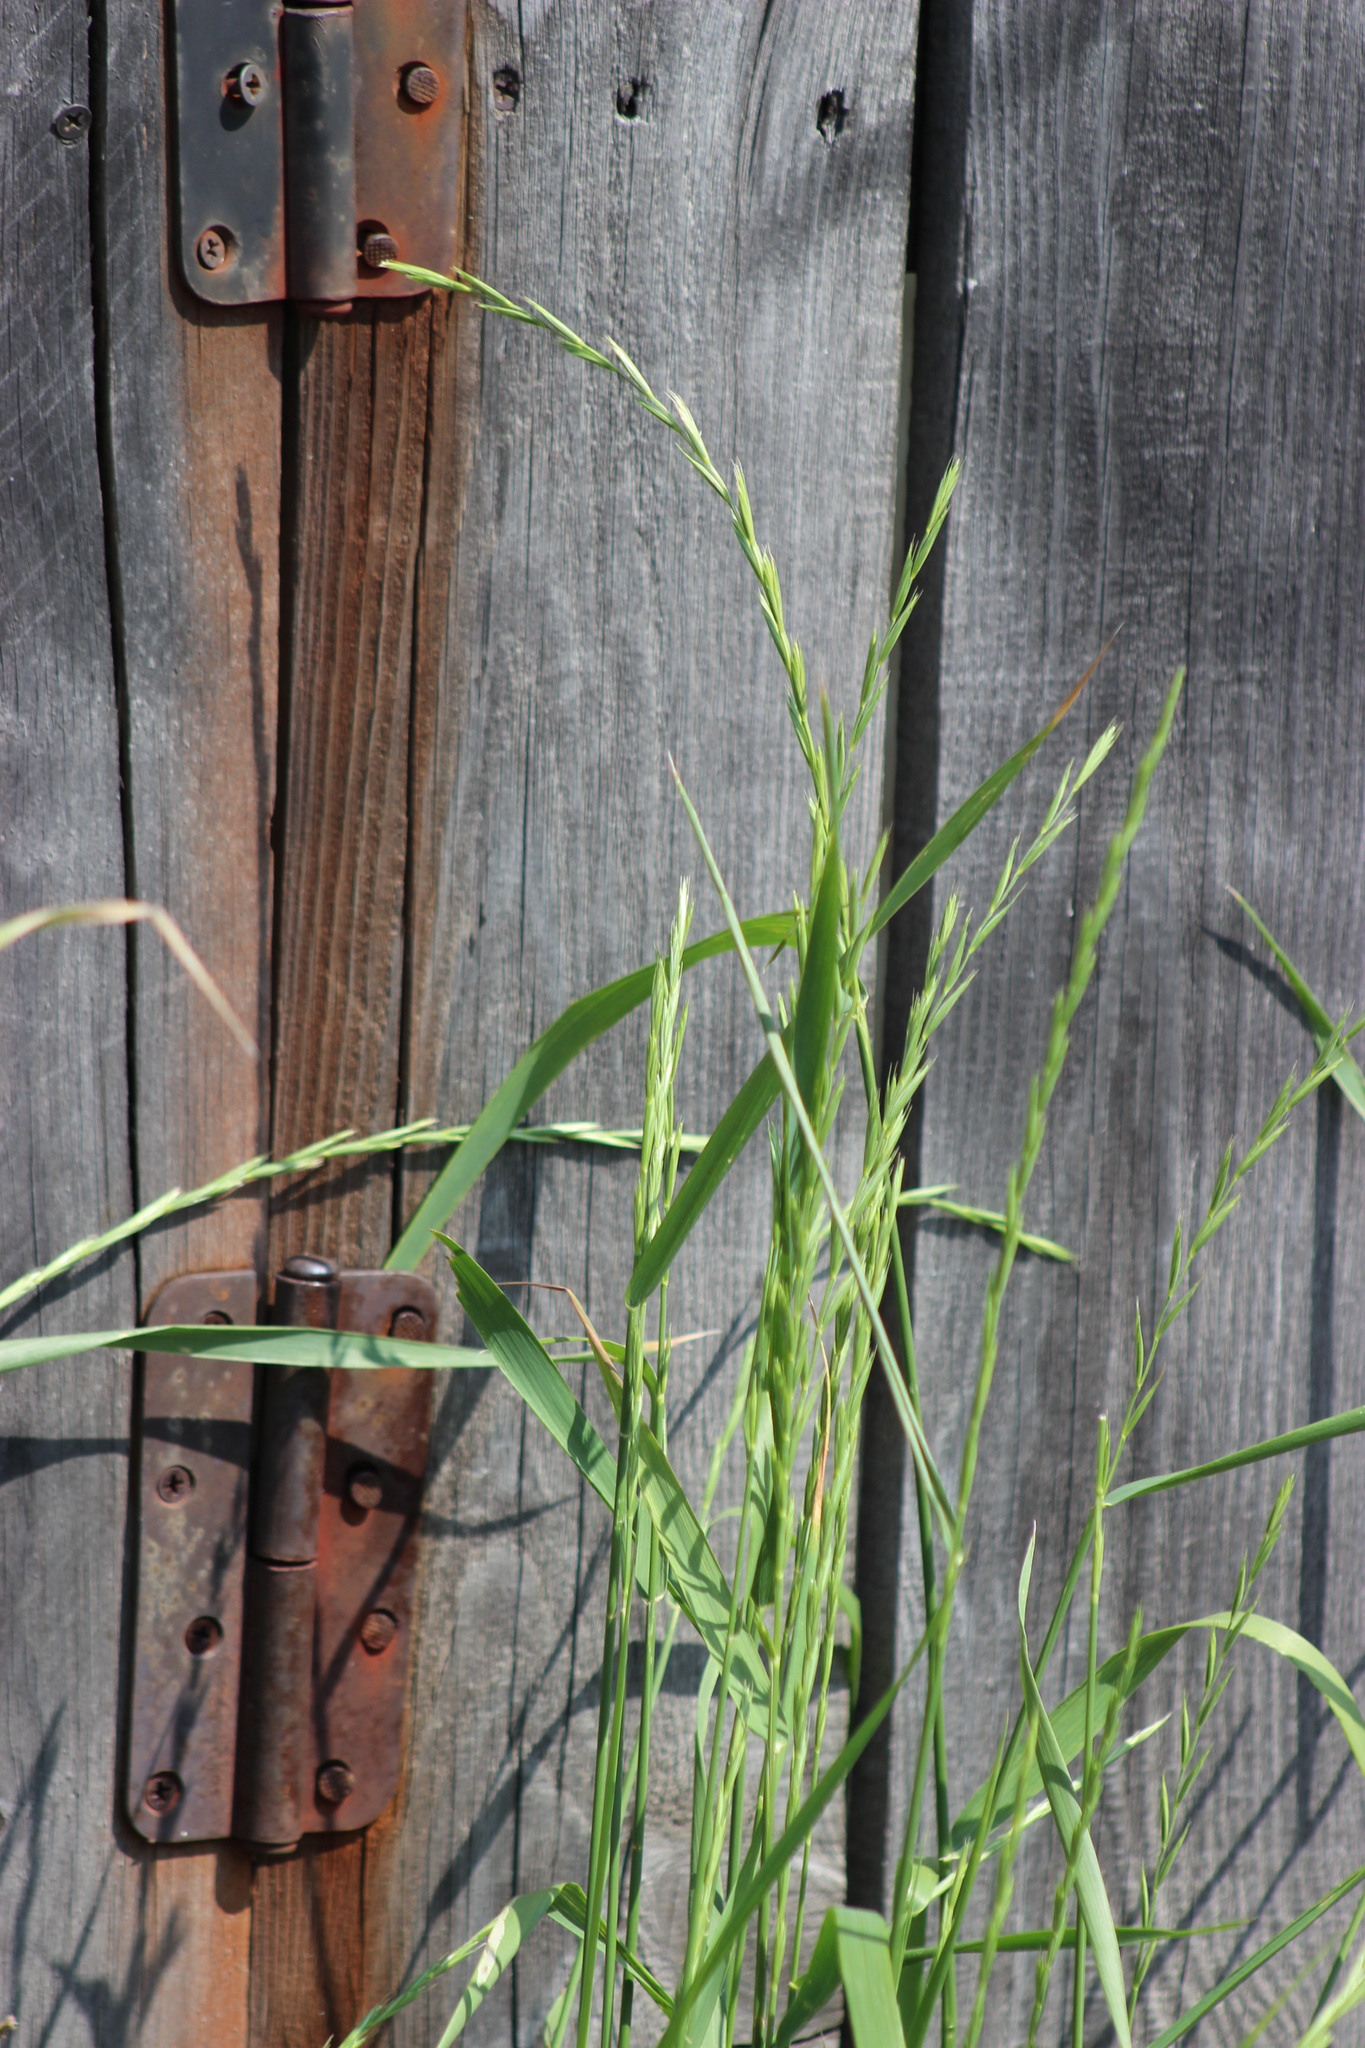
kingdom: Plantae
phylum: Tracheophyta
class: Liliopsida
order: Poales
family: Poaceae
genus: Elymus
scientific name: Elymus repens
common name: Quackgrass
